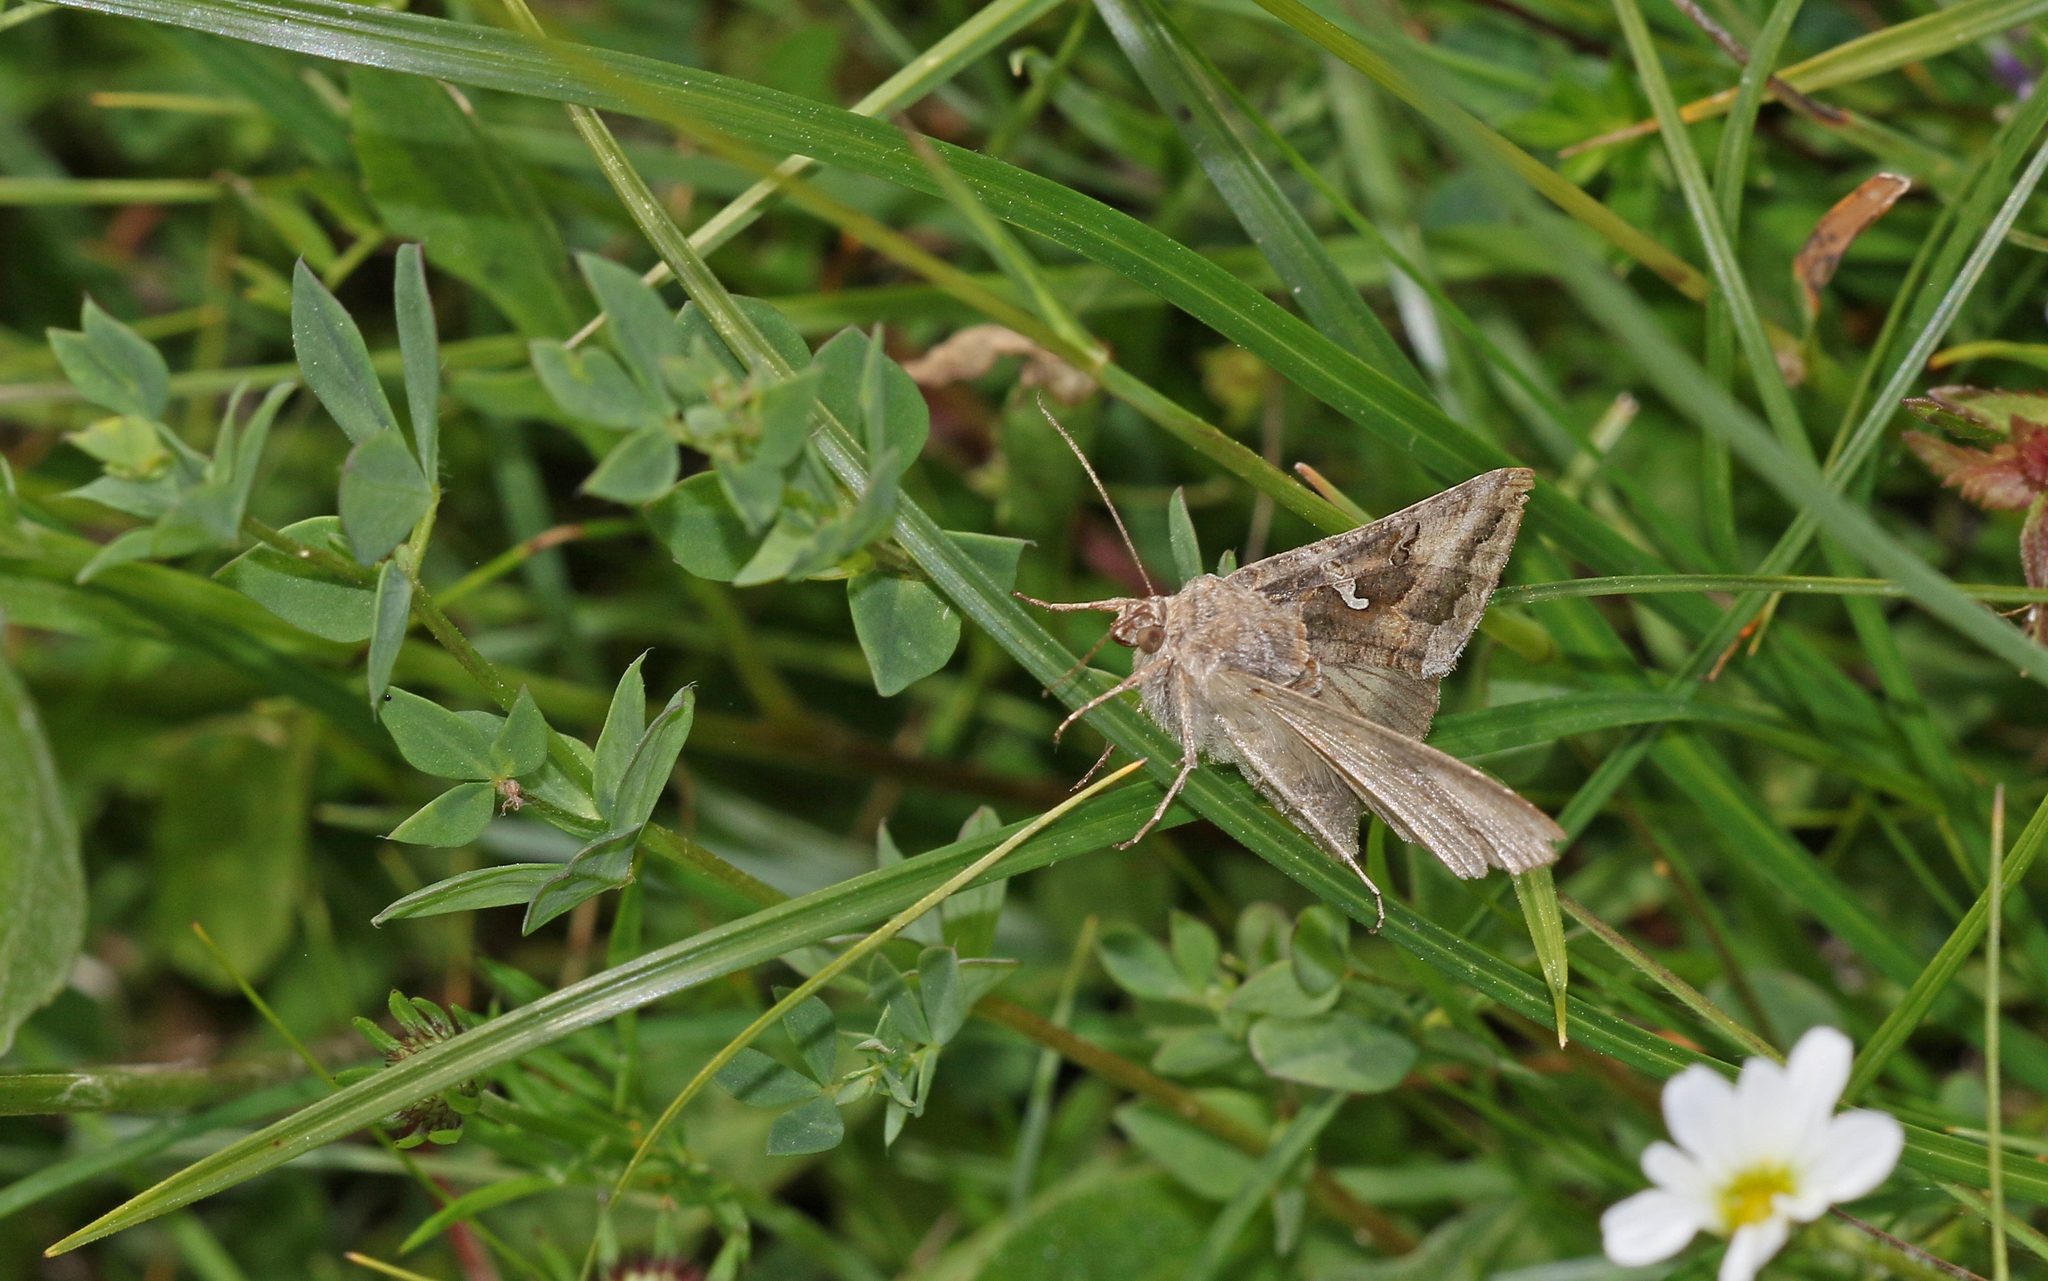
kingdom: Animalia
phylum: Arthropoda
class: Insecta
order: Lepidoptera
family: Noctuidae
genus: Autographa
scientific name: Autographa gamma
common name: Silver y
